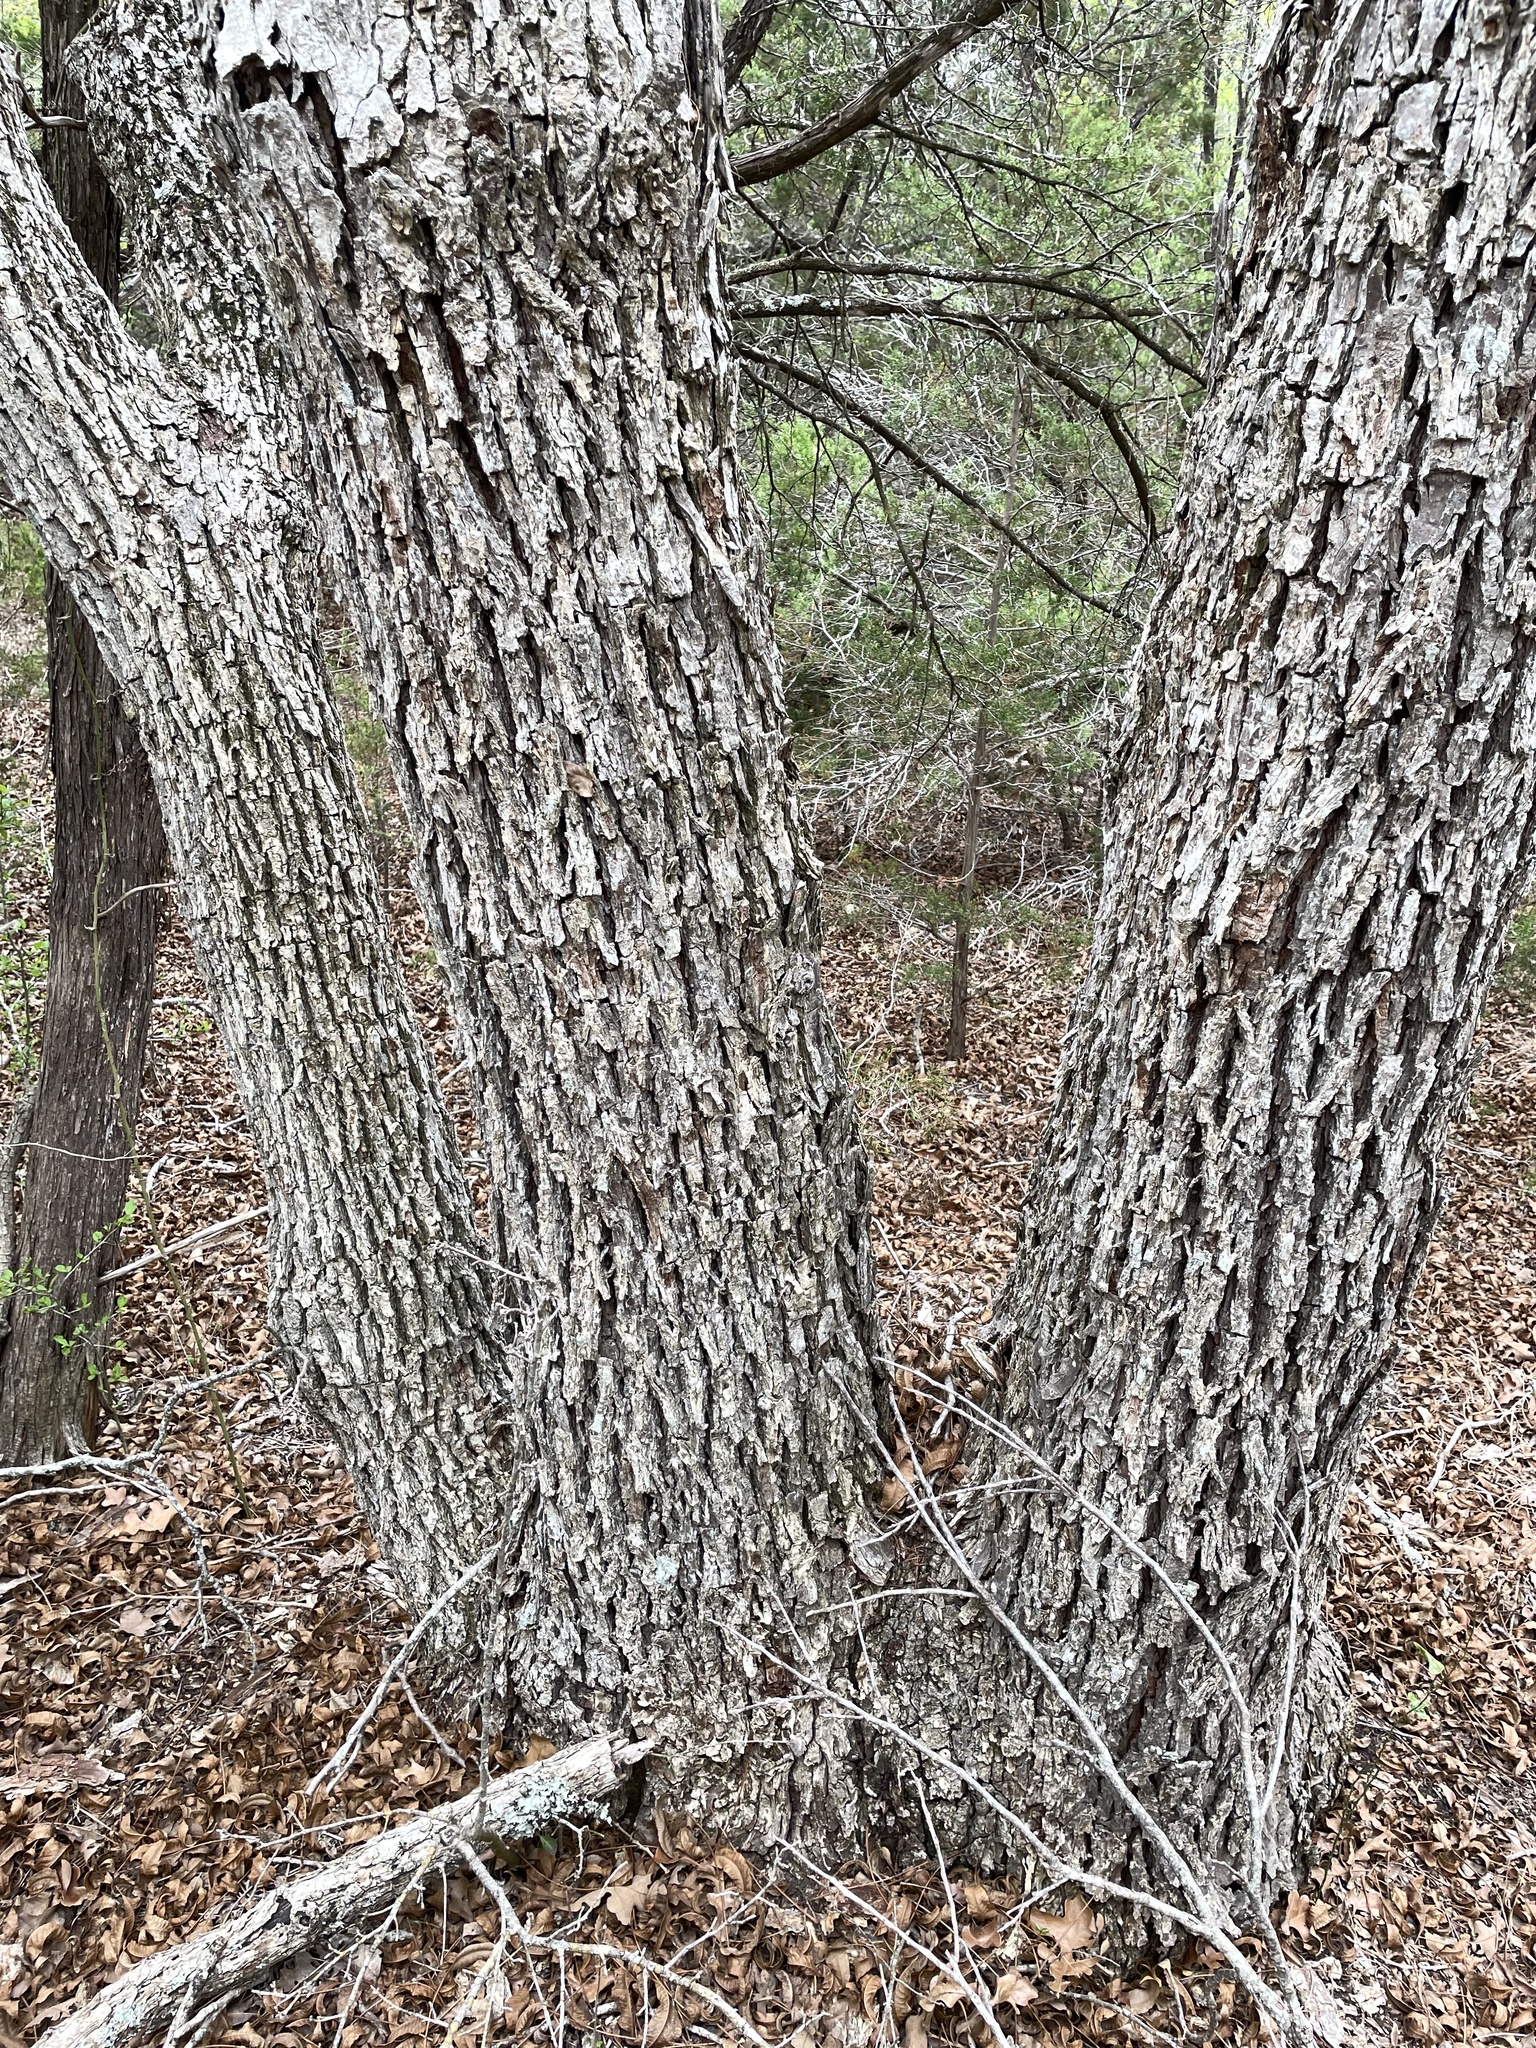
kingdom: Plantae
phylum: Tracheophyta
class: Magnoliopsida
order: Fagales
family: Juglandaceae
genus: Carya
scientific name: Carya illinoinensis
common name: Pecan
